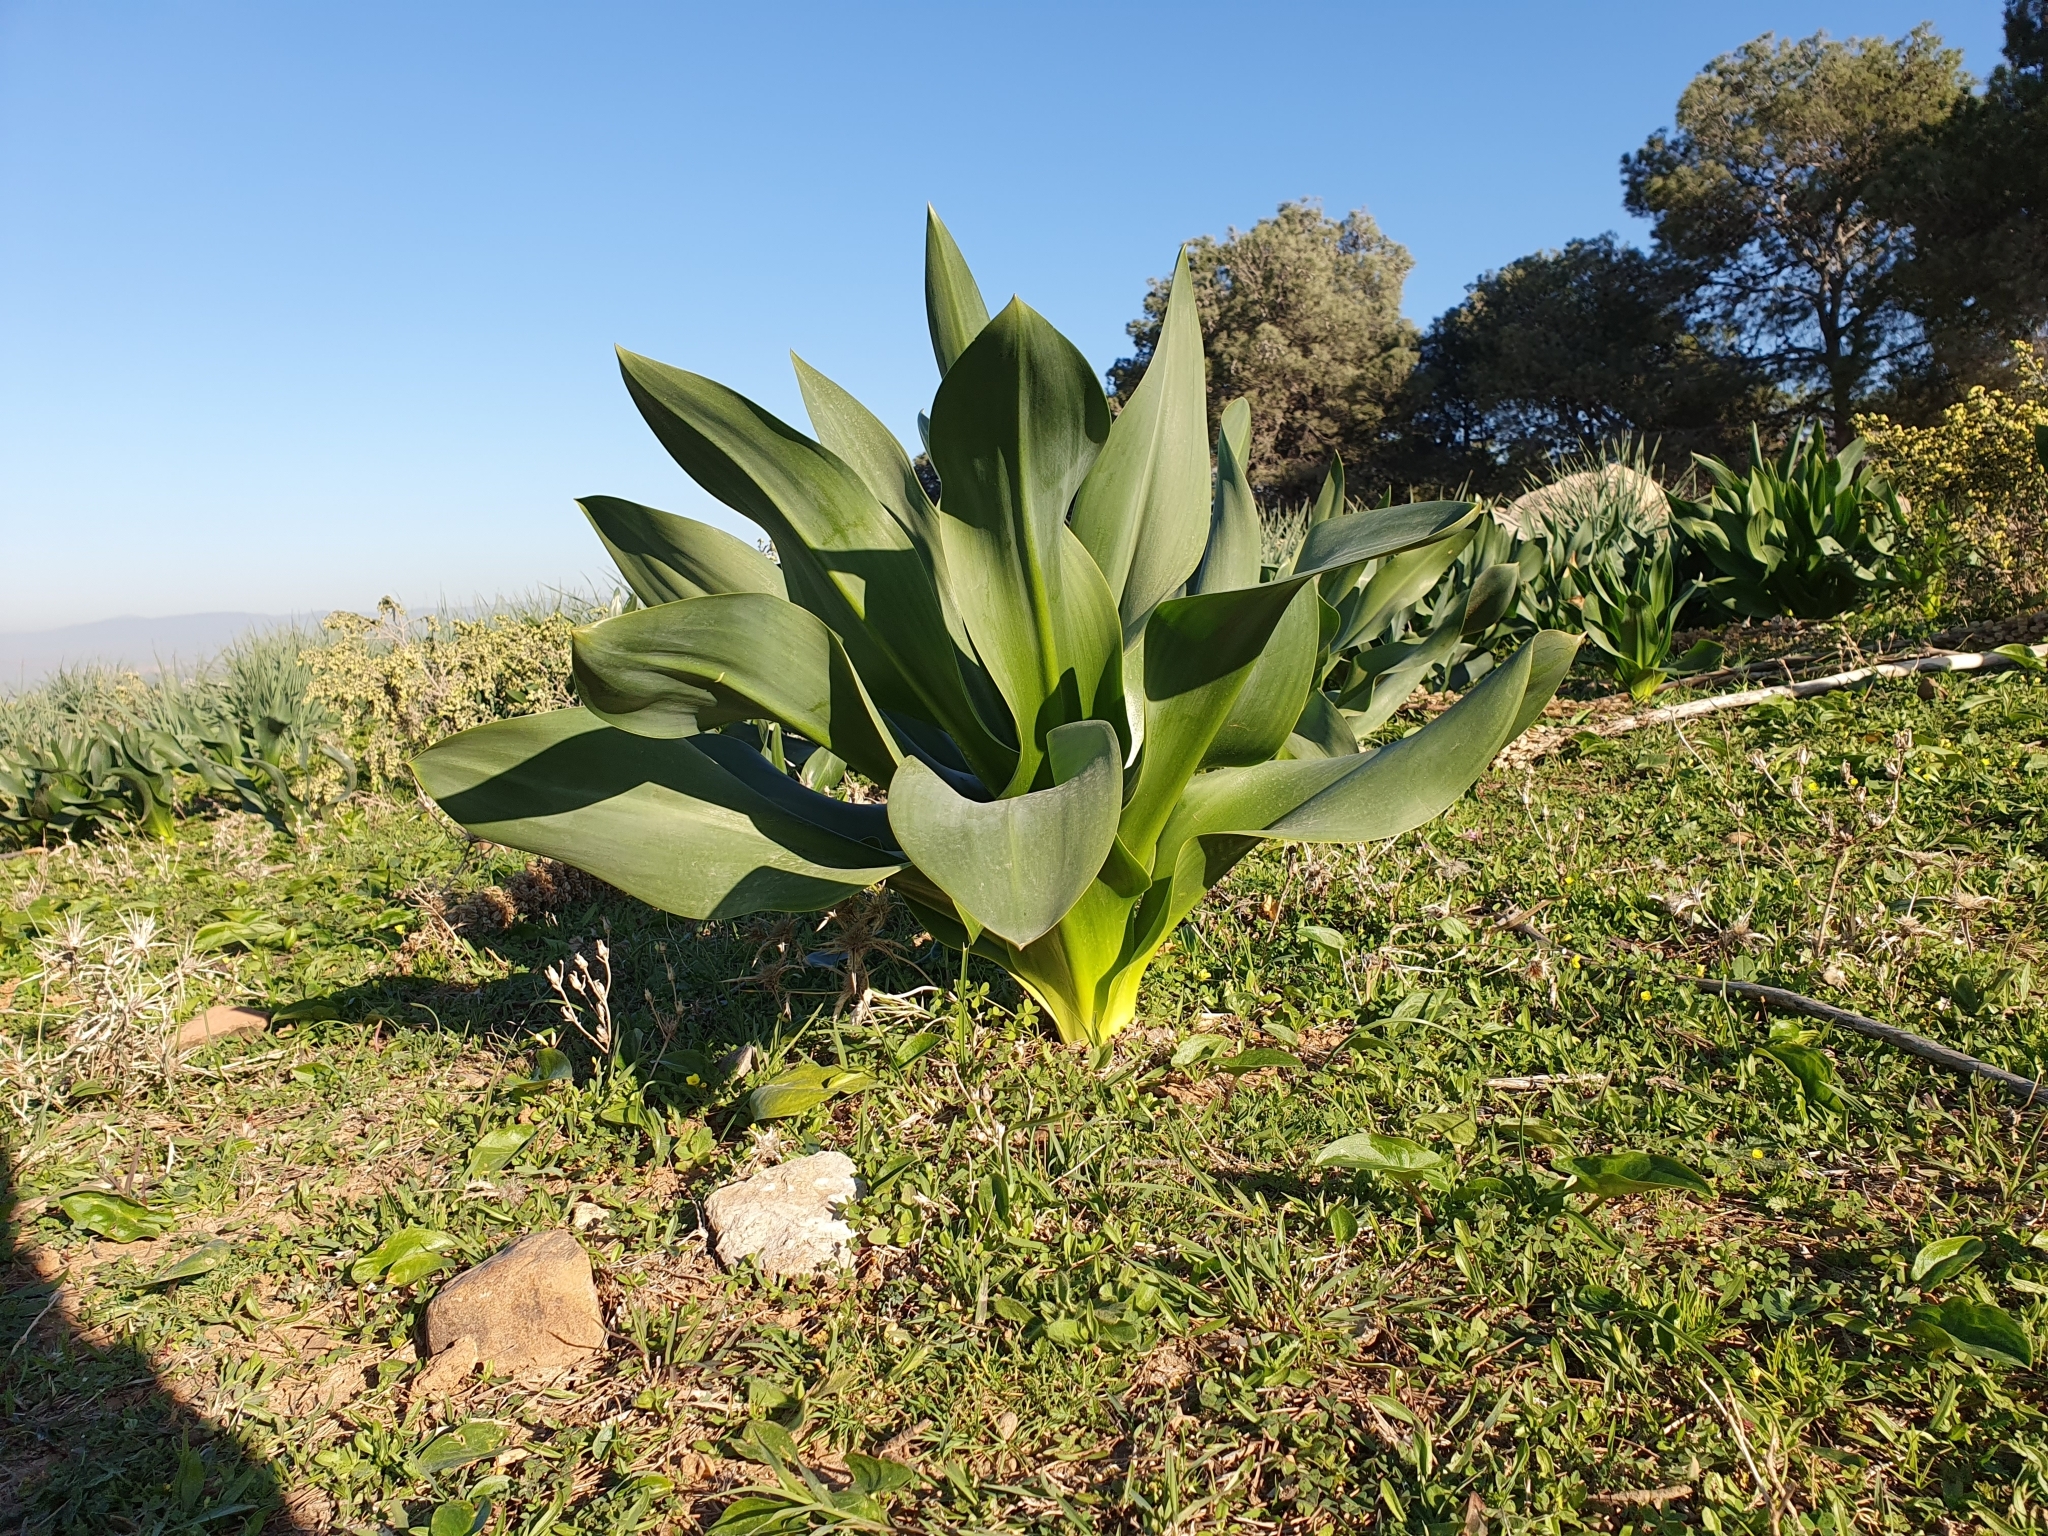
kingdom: Plantae
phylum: Tracheophyta
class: Liliopsida
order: Asparagales
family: Asparagaceae
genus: Drimia
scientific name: Drimia numidica
